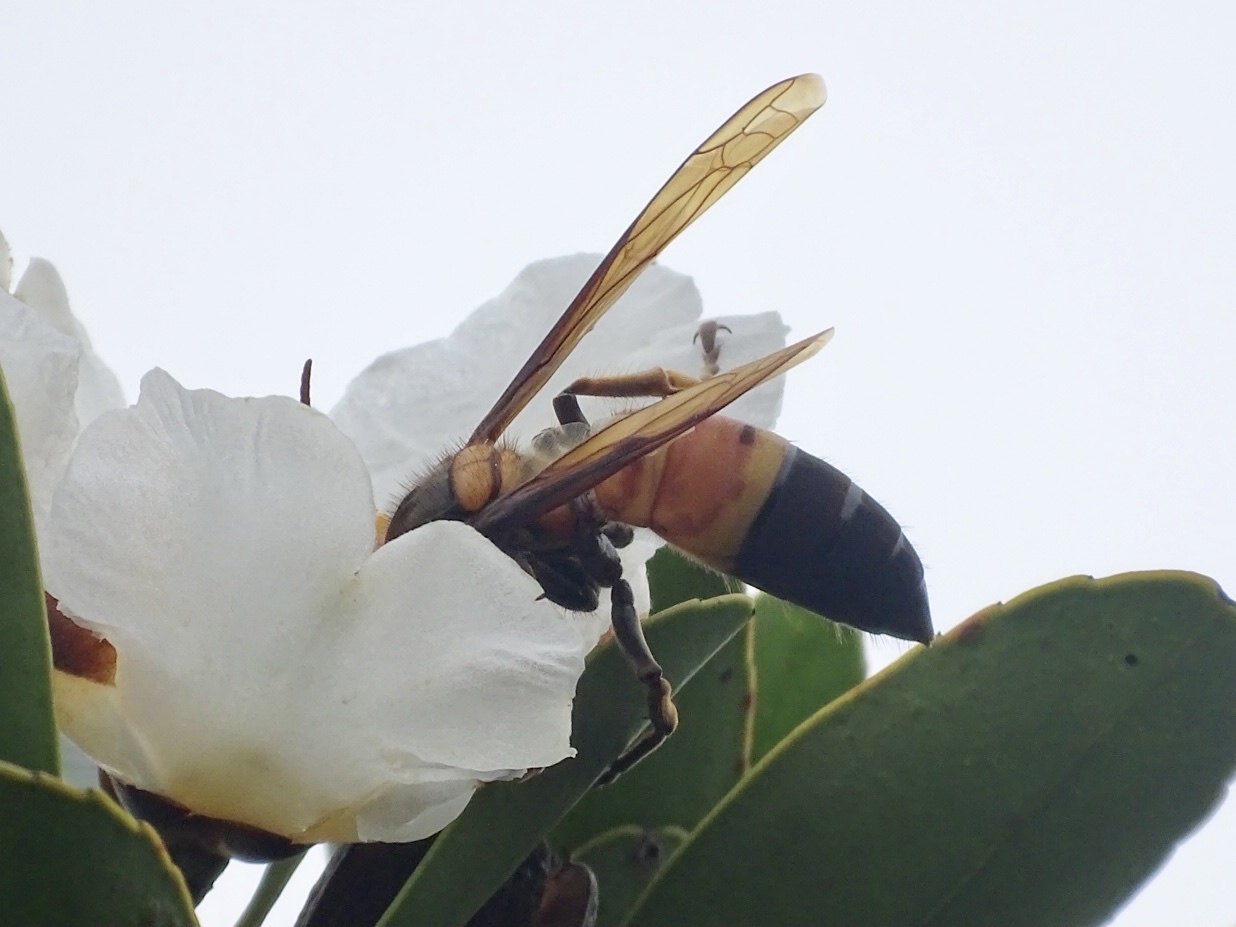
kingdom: Animalia
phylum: Arthropoda
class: Insecta
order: Hymenoptera
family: Vespidae
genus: Vespa
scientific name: Vespa soror
